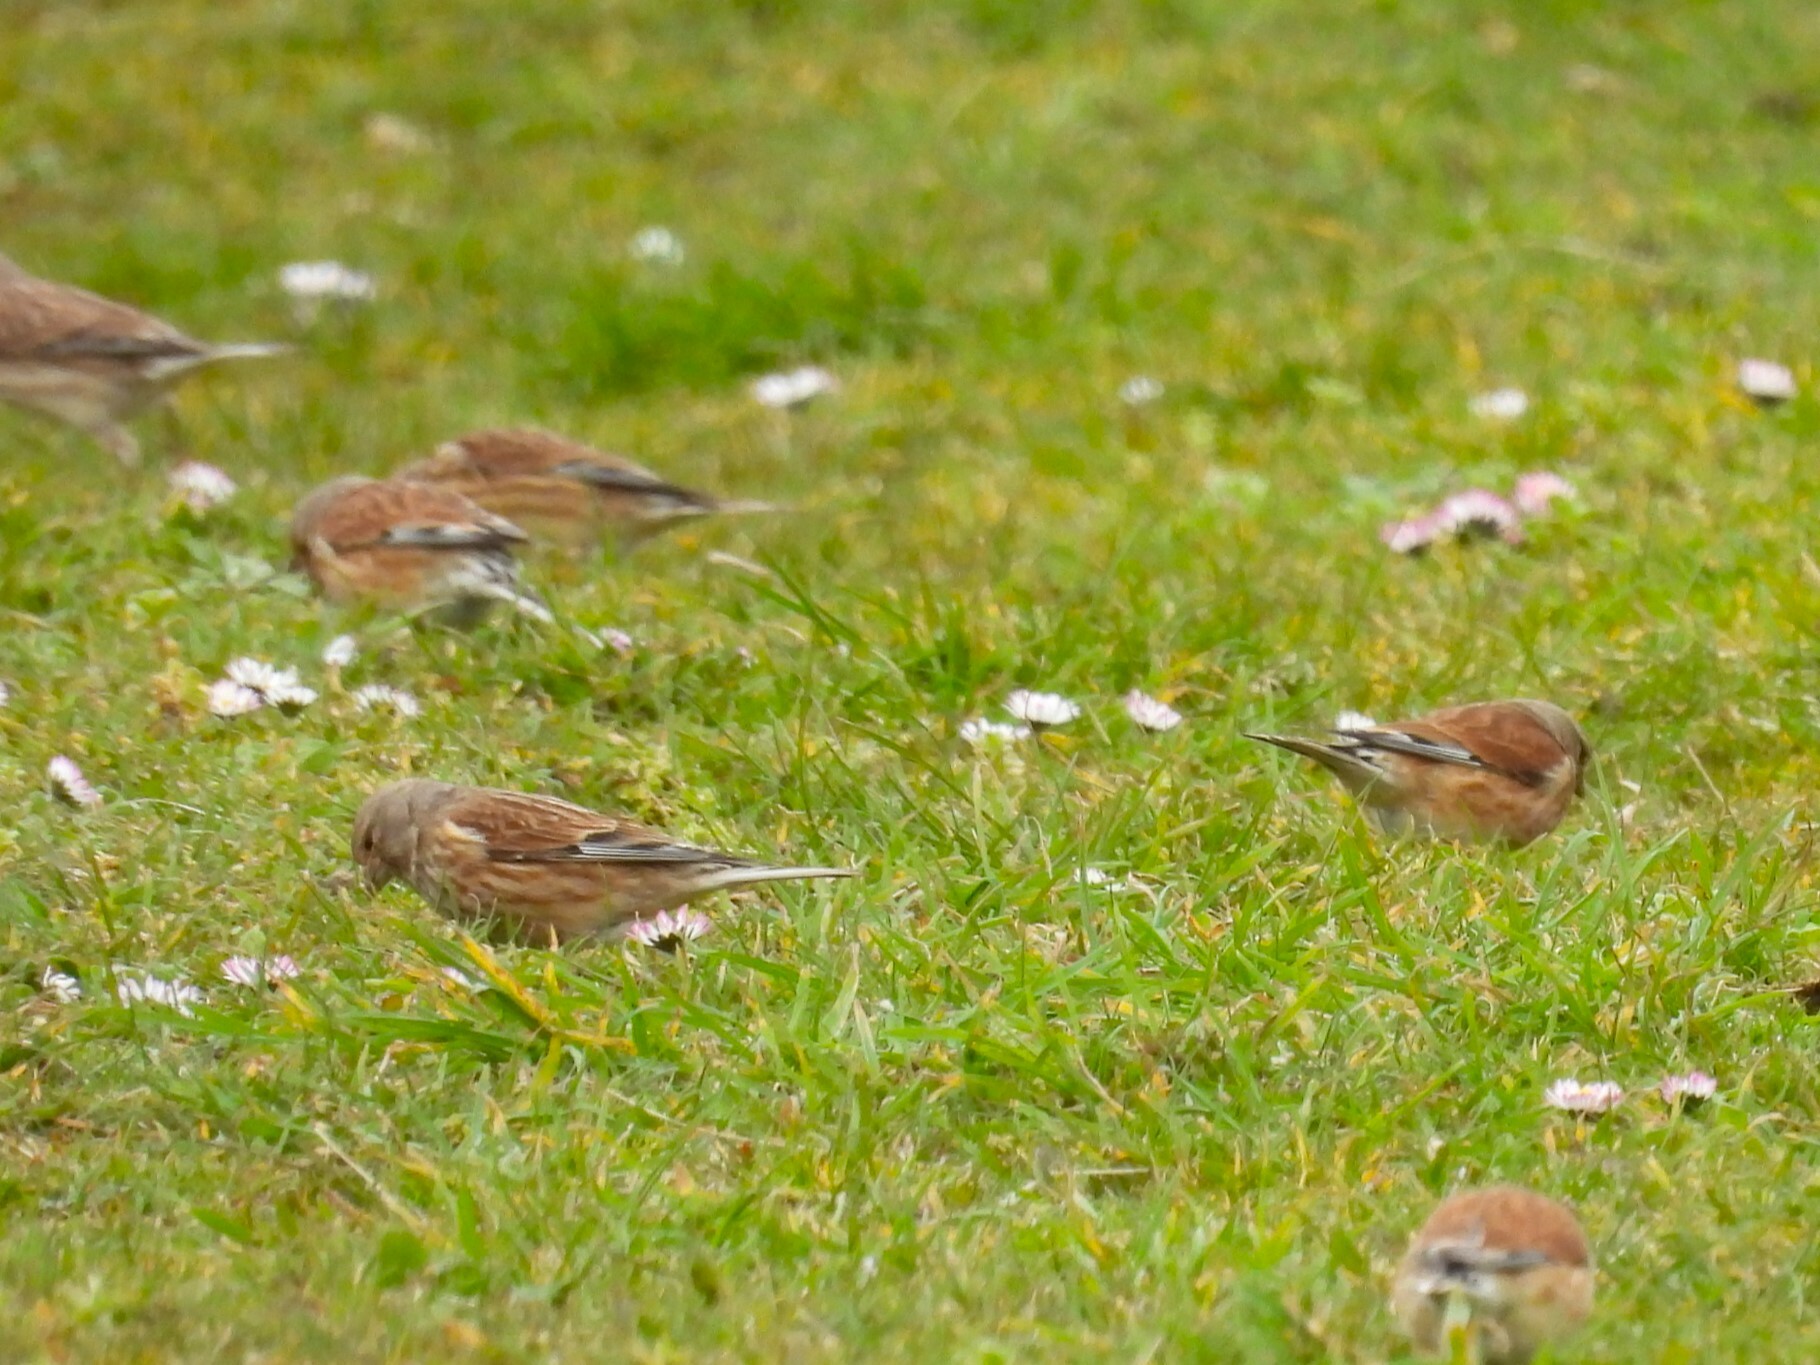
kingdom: Animalia
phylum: Chordata
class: Aves
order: Passeriformes
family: Fringillidae
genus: Linaria
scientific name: Linaria cannabina
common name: Common linnet
